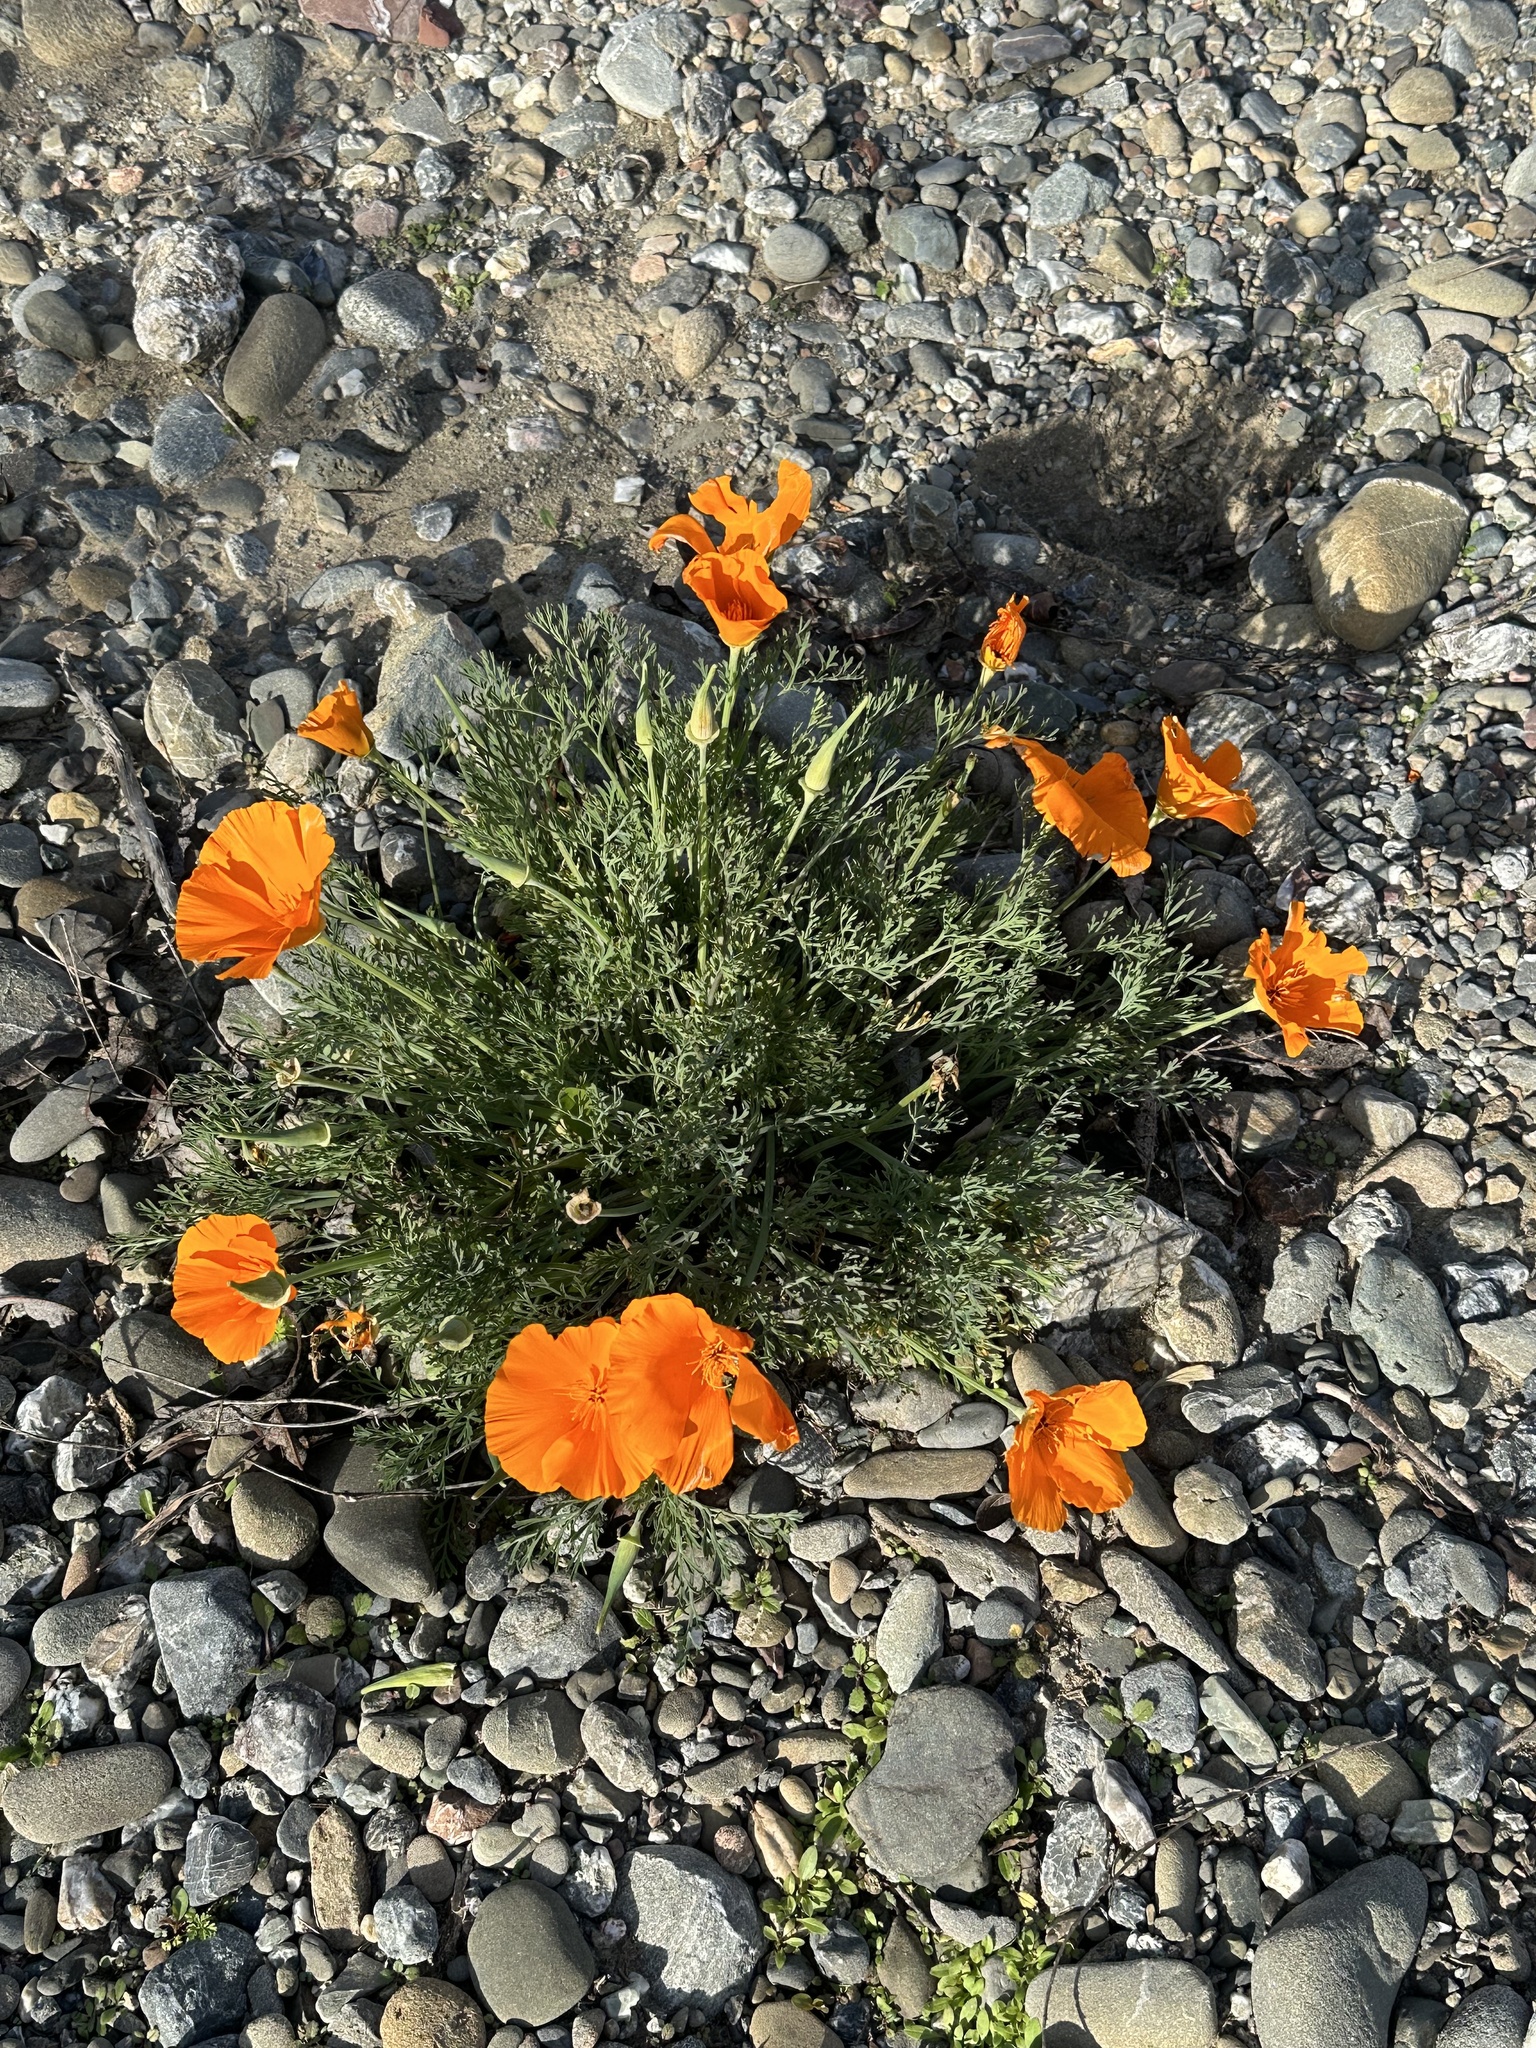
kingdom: Plantae
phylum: Tracheophyta
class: Magnoliopsida
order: Ranunculales
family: Papaveraceae
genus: Eschscholzia
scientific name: Eschscholzia californica
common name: California poppy
